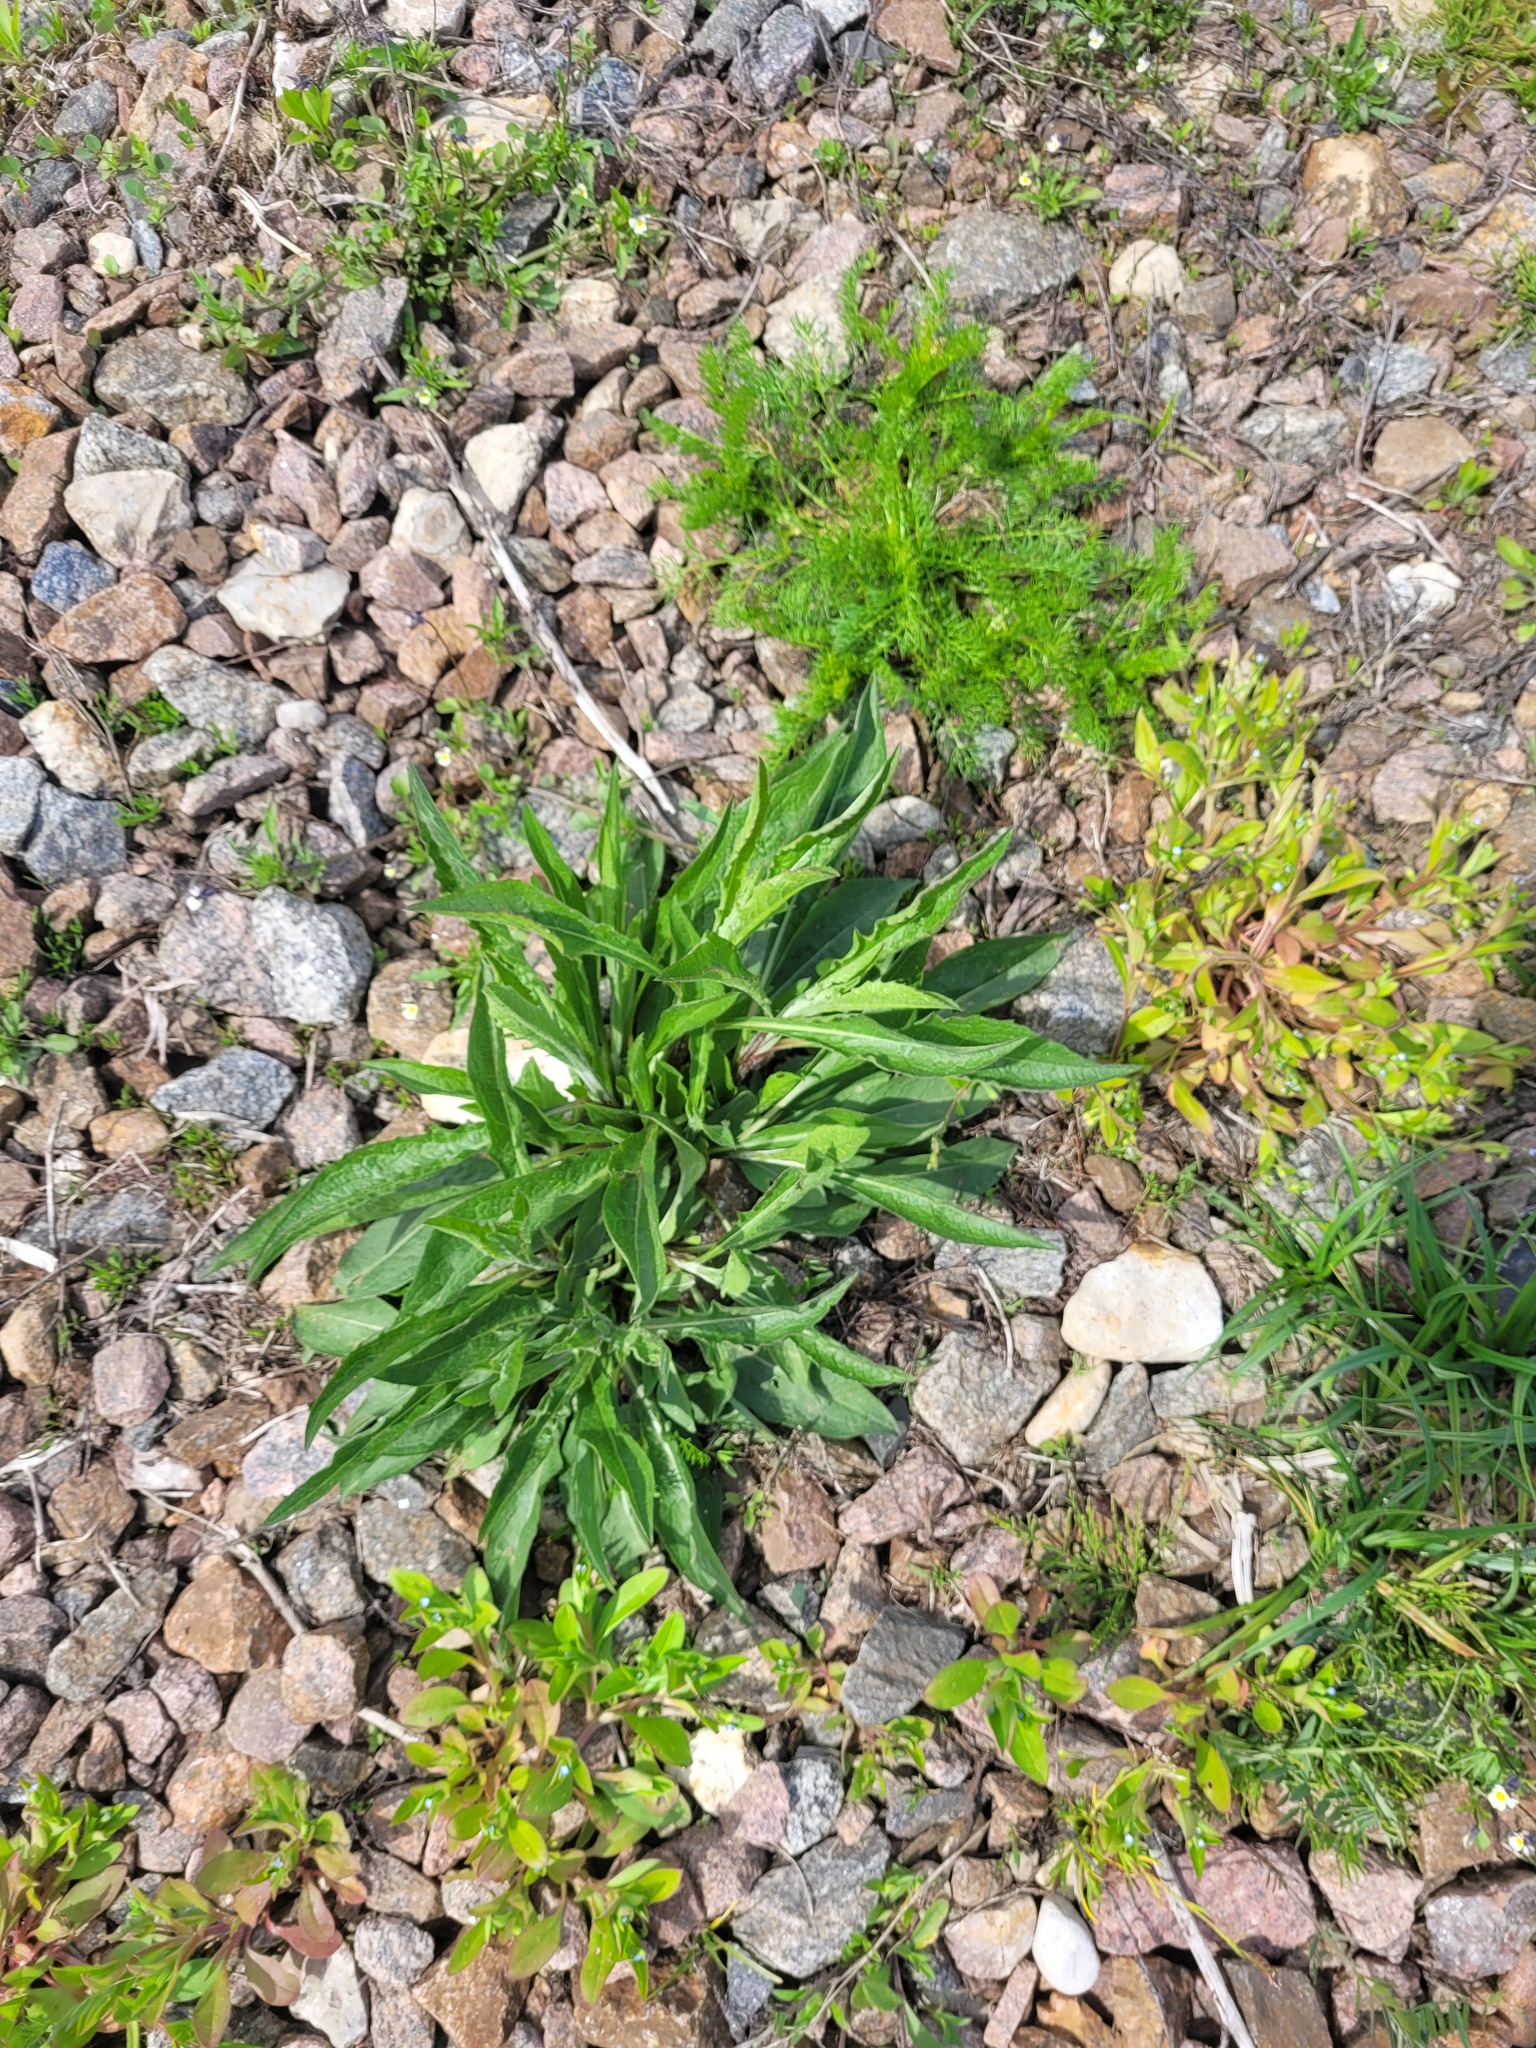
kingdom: Plantae
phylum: Tracheophyta
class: Magnoliopsida
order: Asterales
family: Asteraceae
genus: Centaurea
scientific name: Centaurea jacea
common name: Brown knapweed
